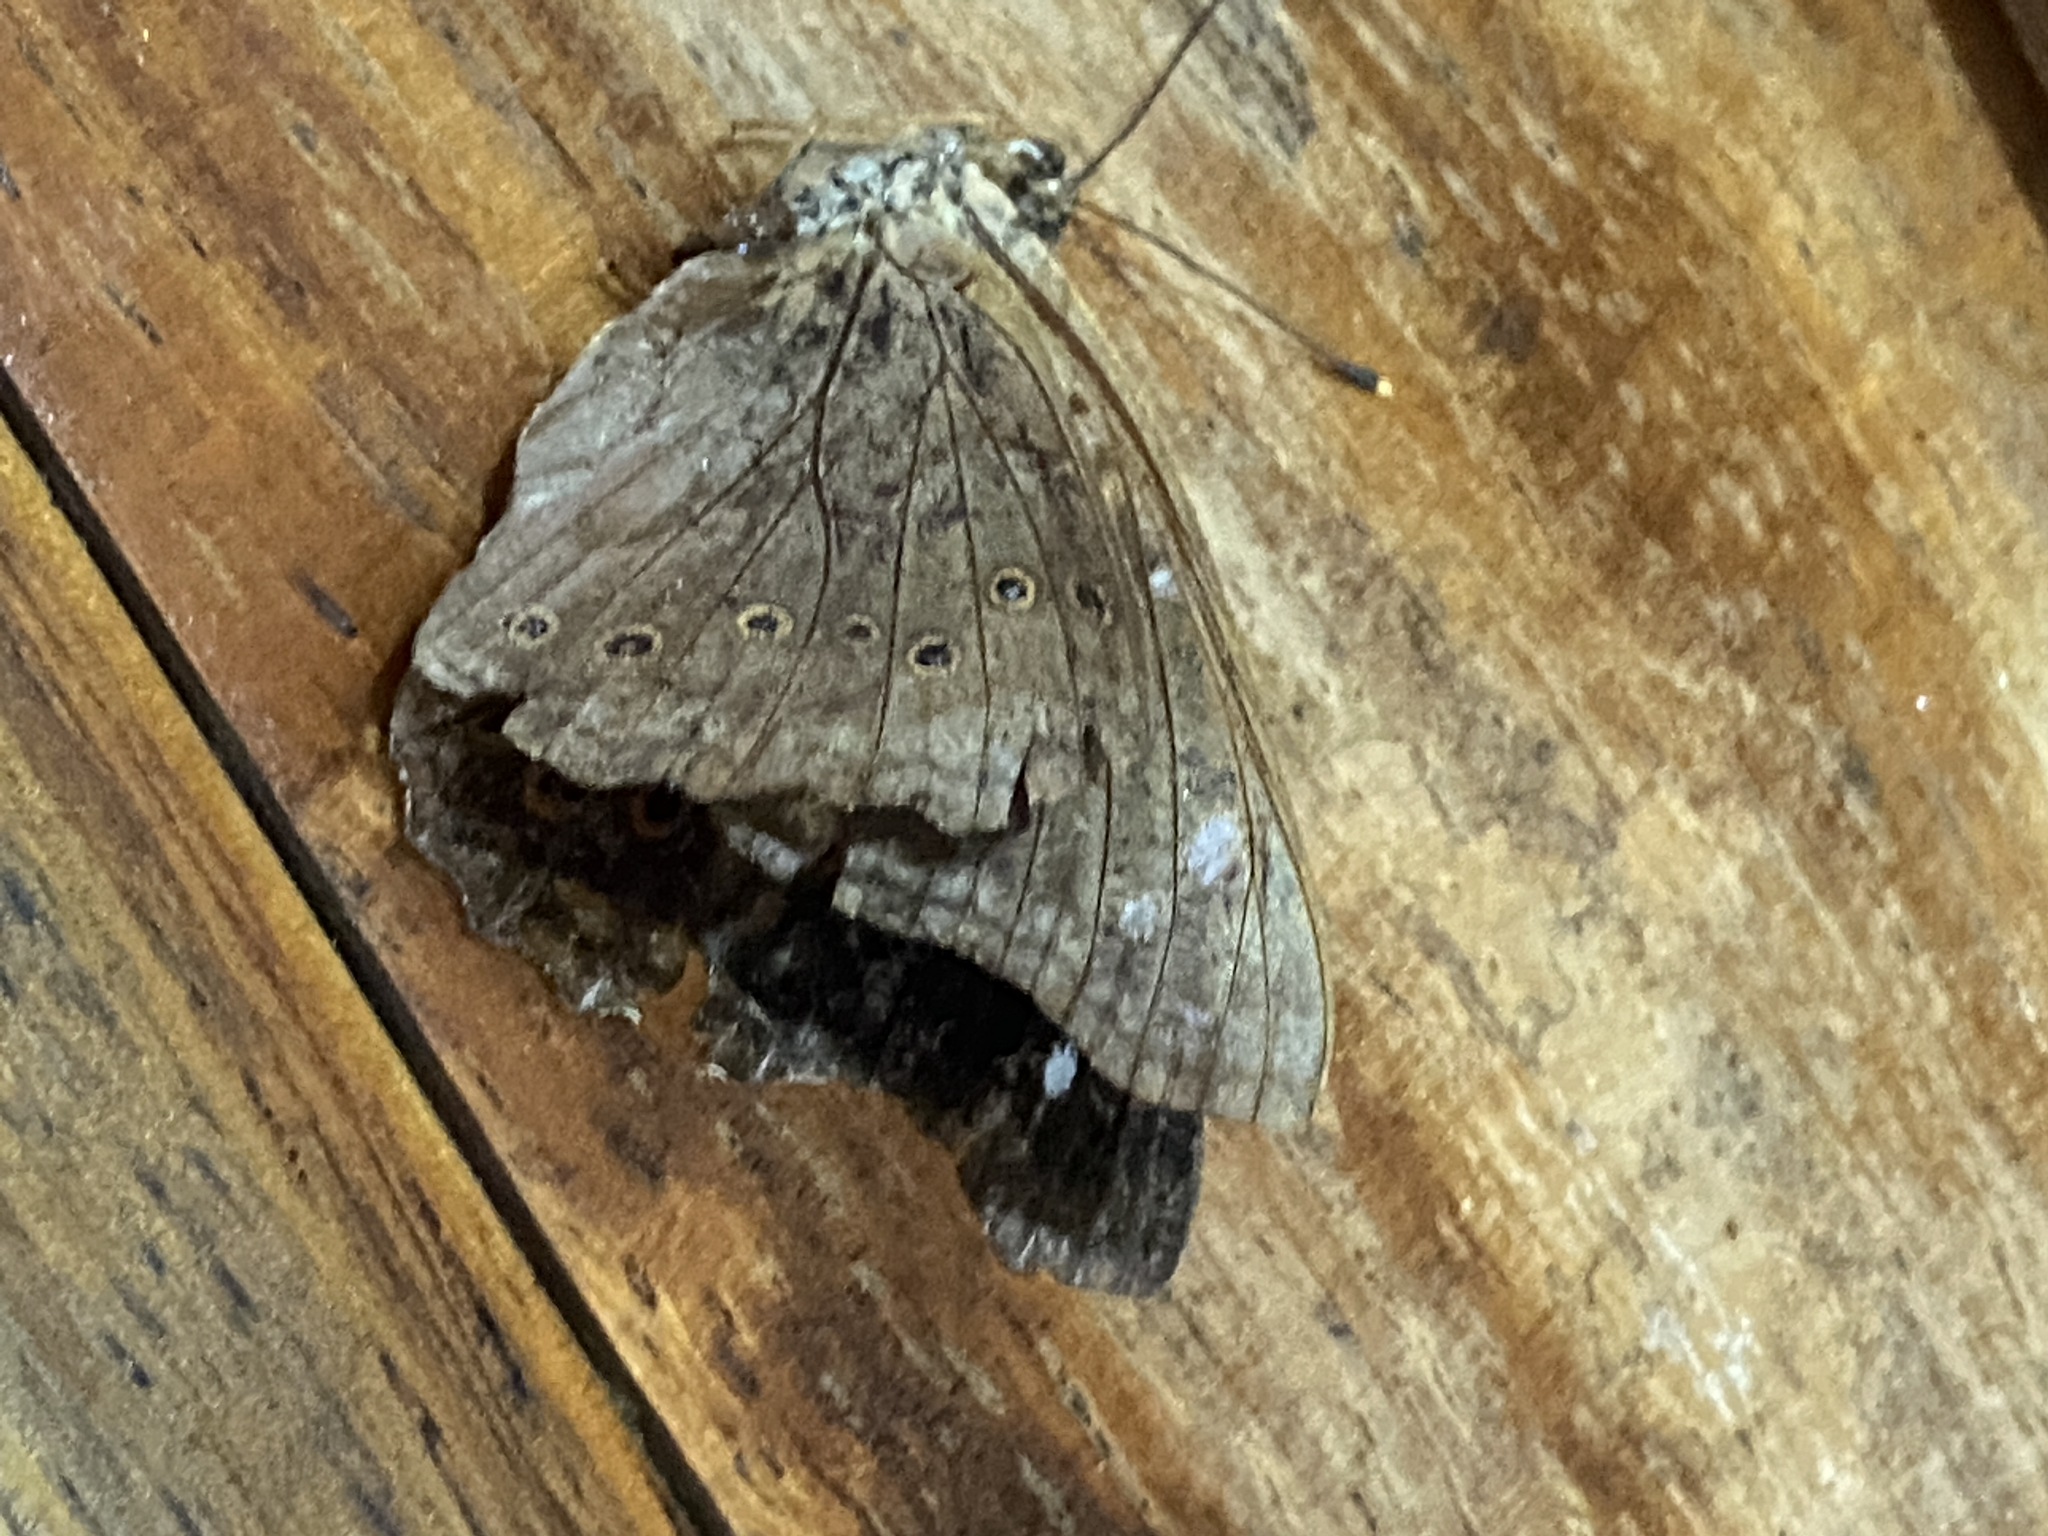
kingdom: Animalia
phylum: Arthropoda
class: Insecta
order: Lepidoptera
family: Nymphalidae
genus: Asterocampa
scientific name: Asterocampa idyja
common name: Dusky emperor
